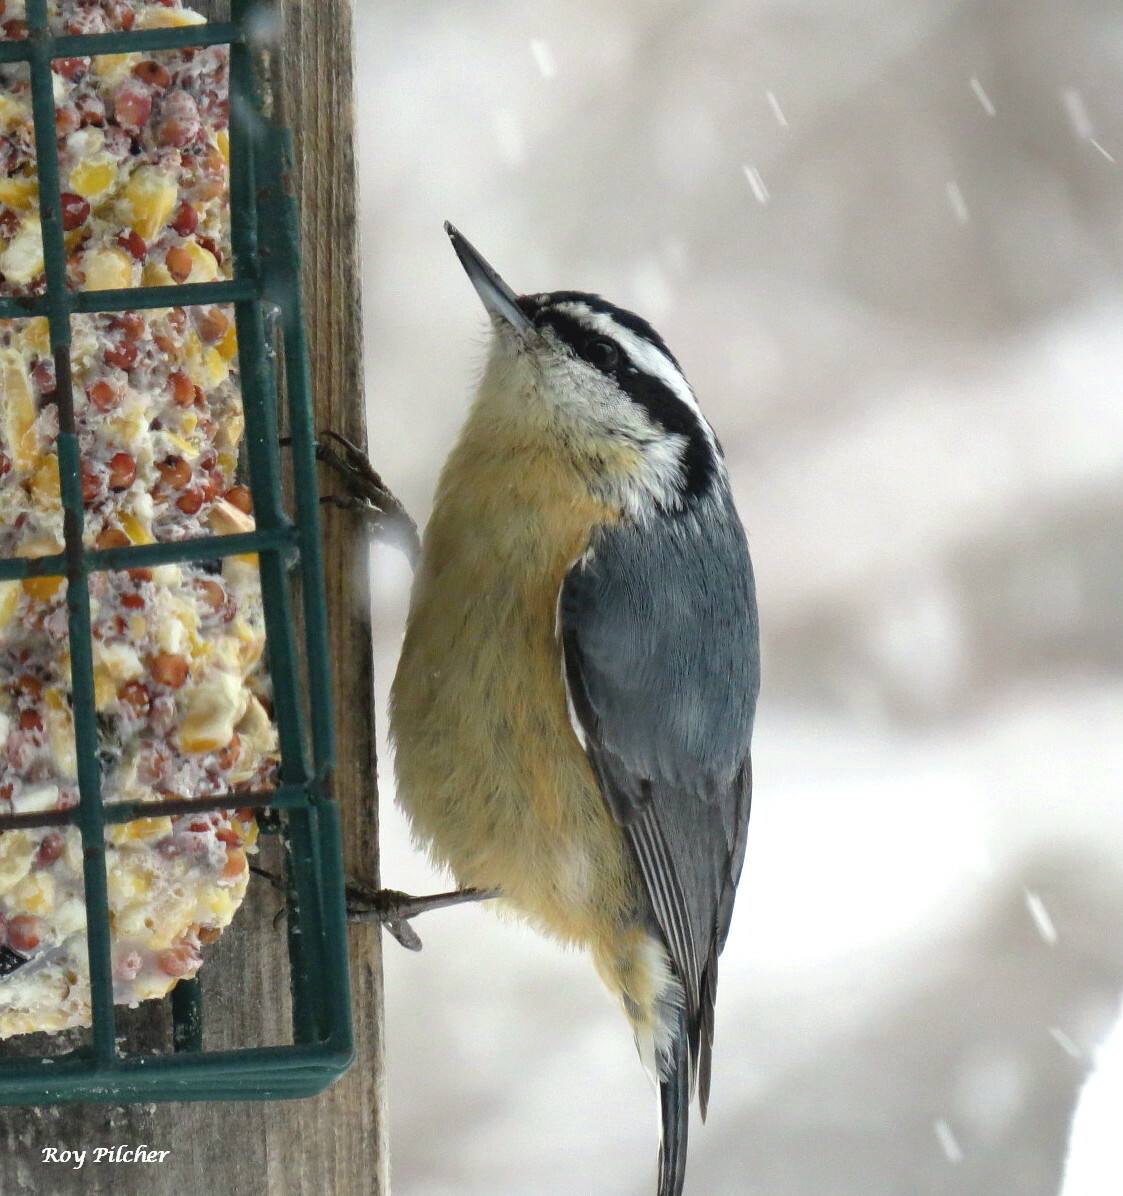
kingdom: Animalia
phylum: Chordata
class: Aves
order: Passeriformes
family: Sittidae
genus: Sitta
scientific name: Sitta canadensis
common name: Red-breasted nuthatch
